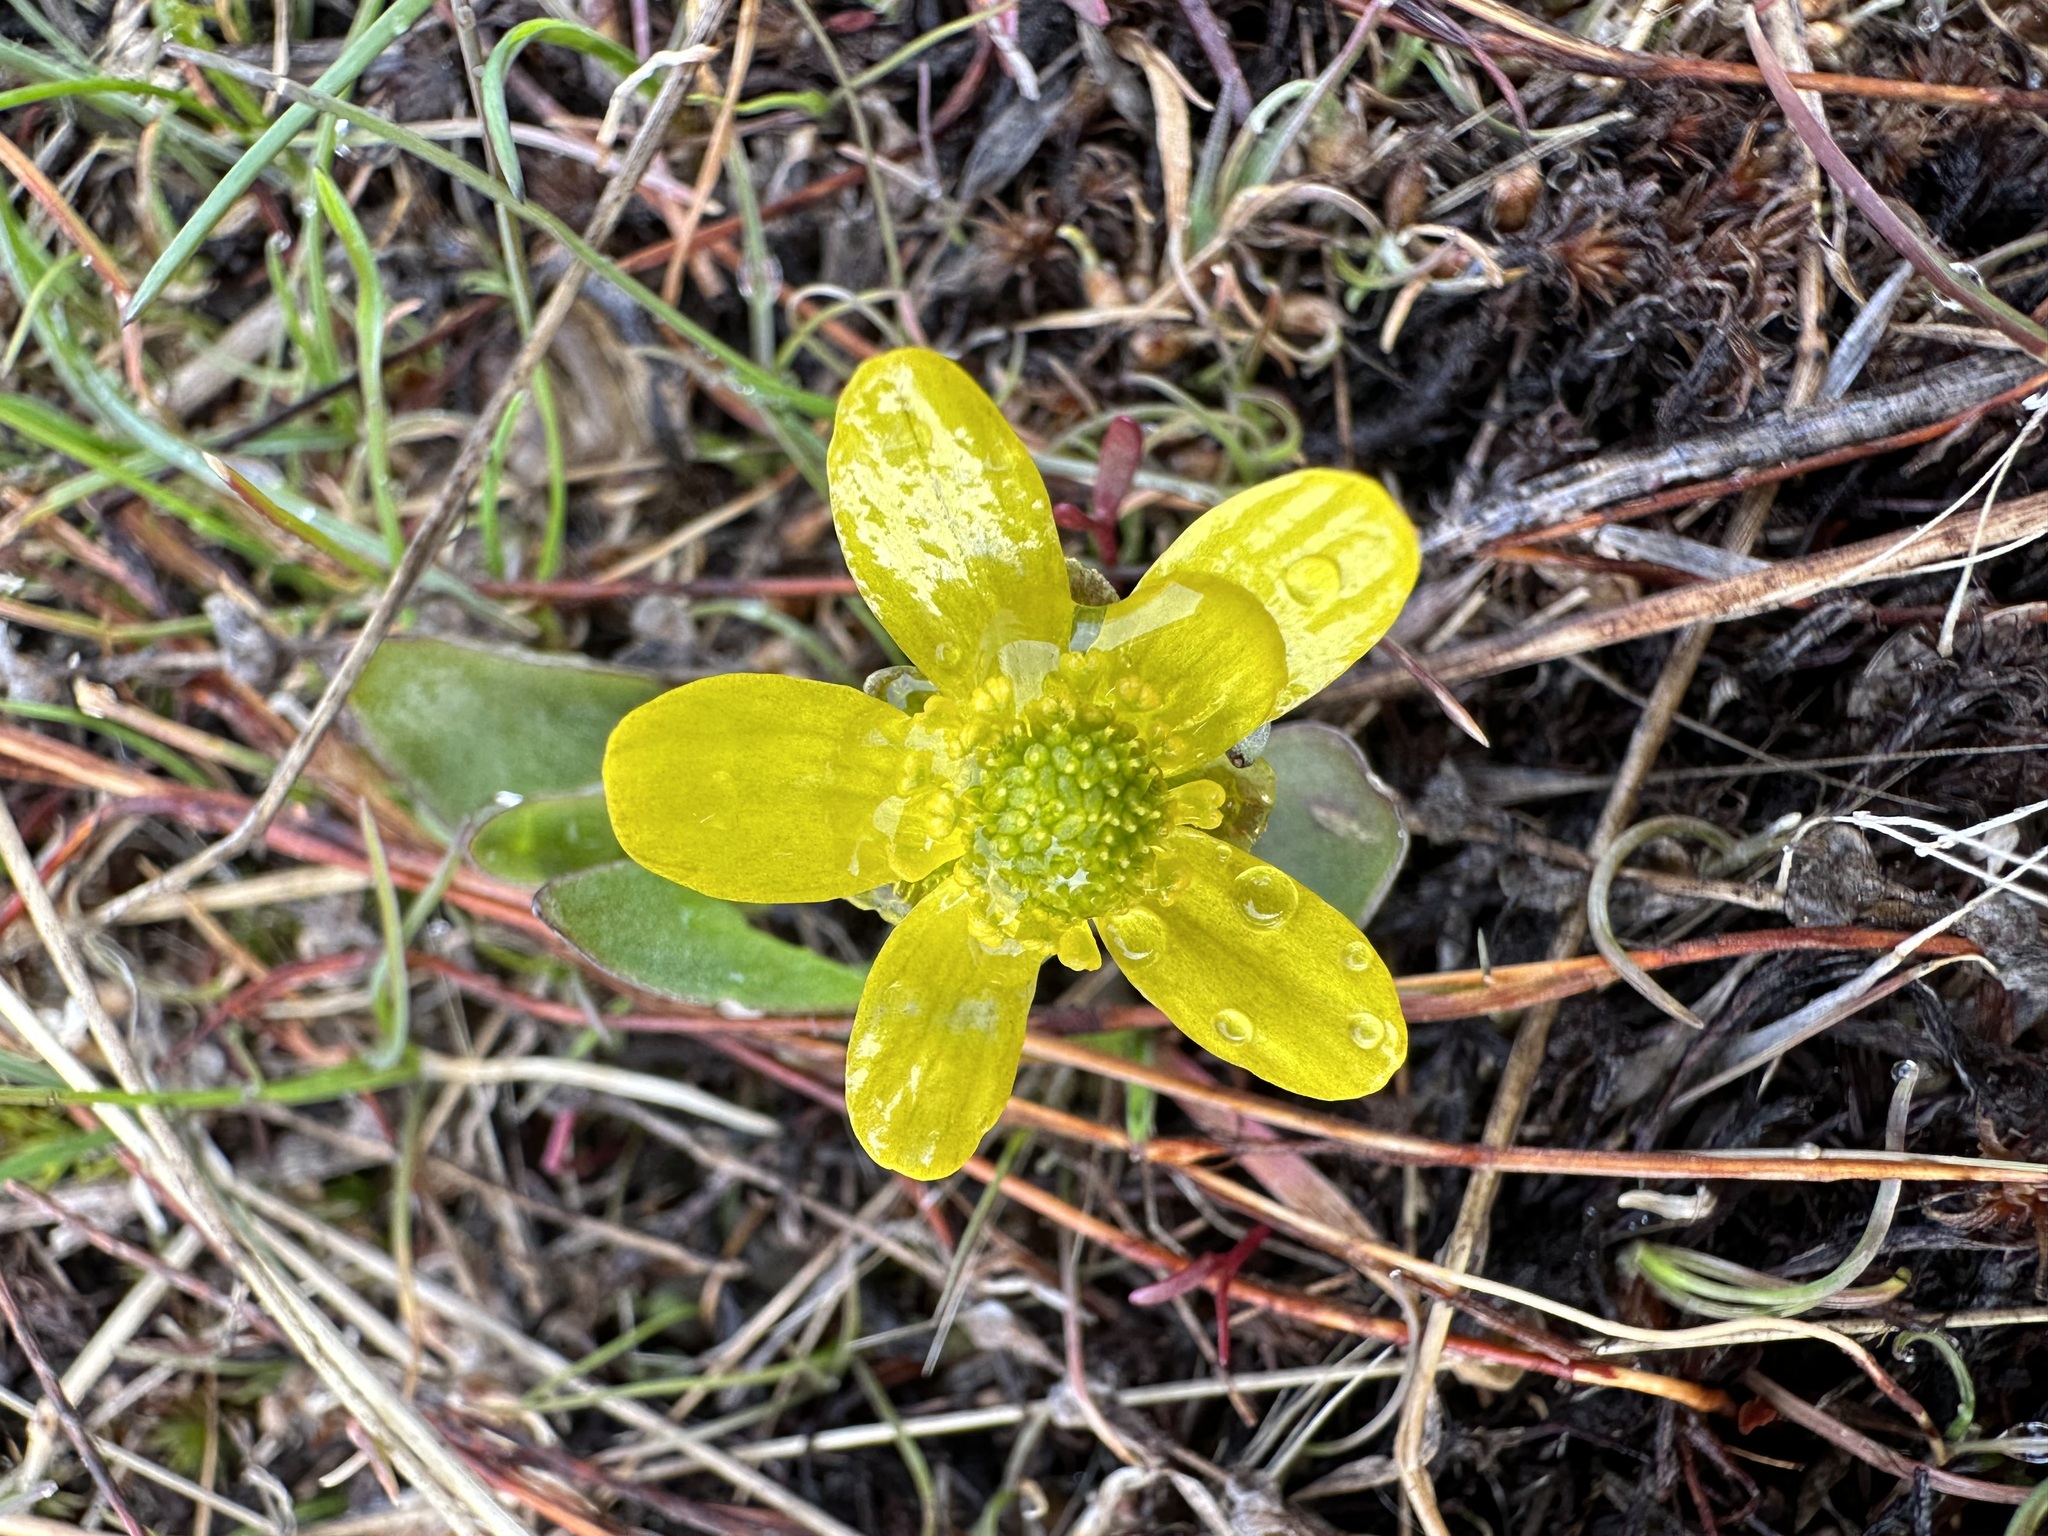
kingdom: Plantae
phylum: Tracheophyta
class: Magnoliopsida
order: Ranunculales
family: Ranunculaceae
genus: Ranunculus
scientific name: Ranunculus glaberrimus
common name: Sagebrush buttercup
